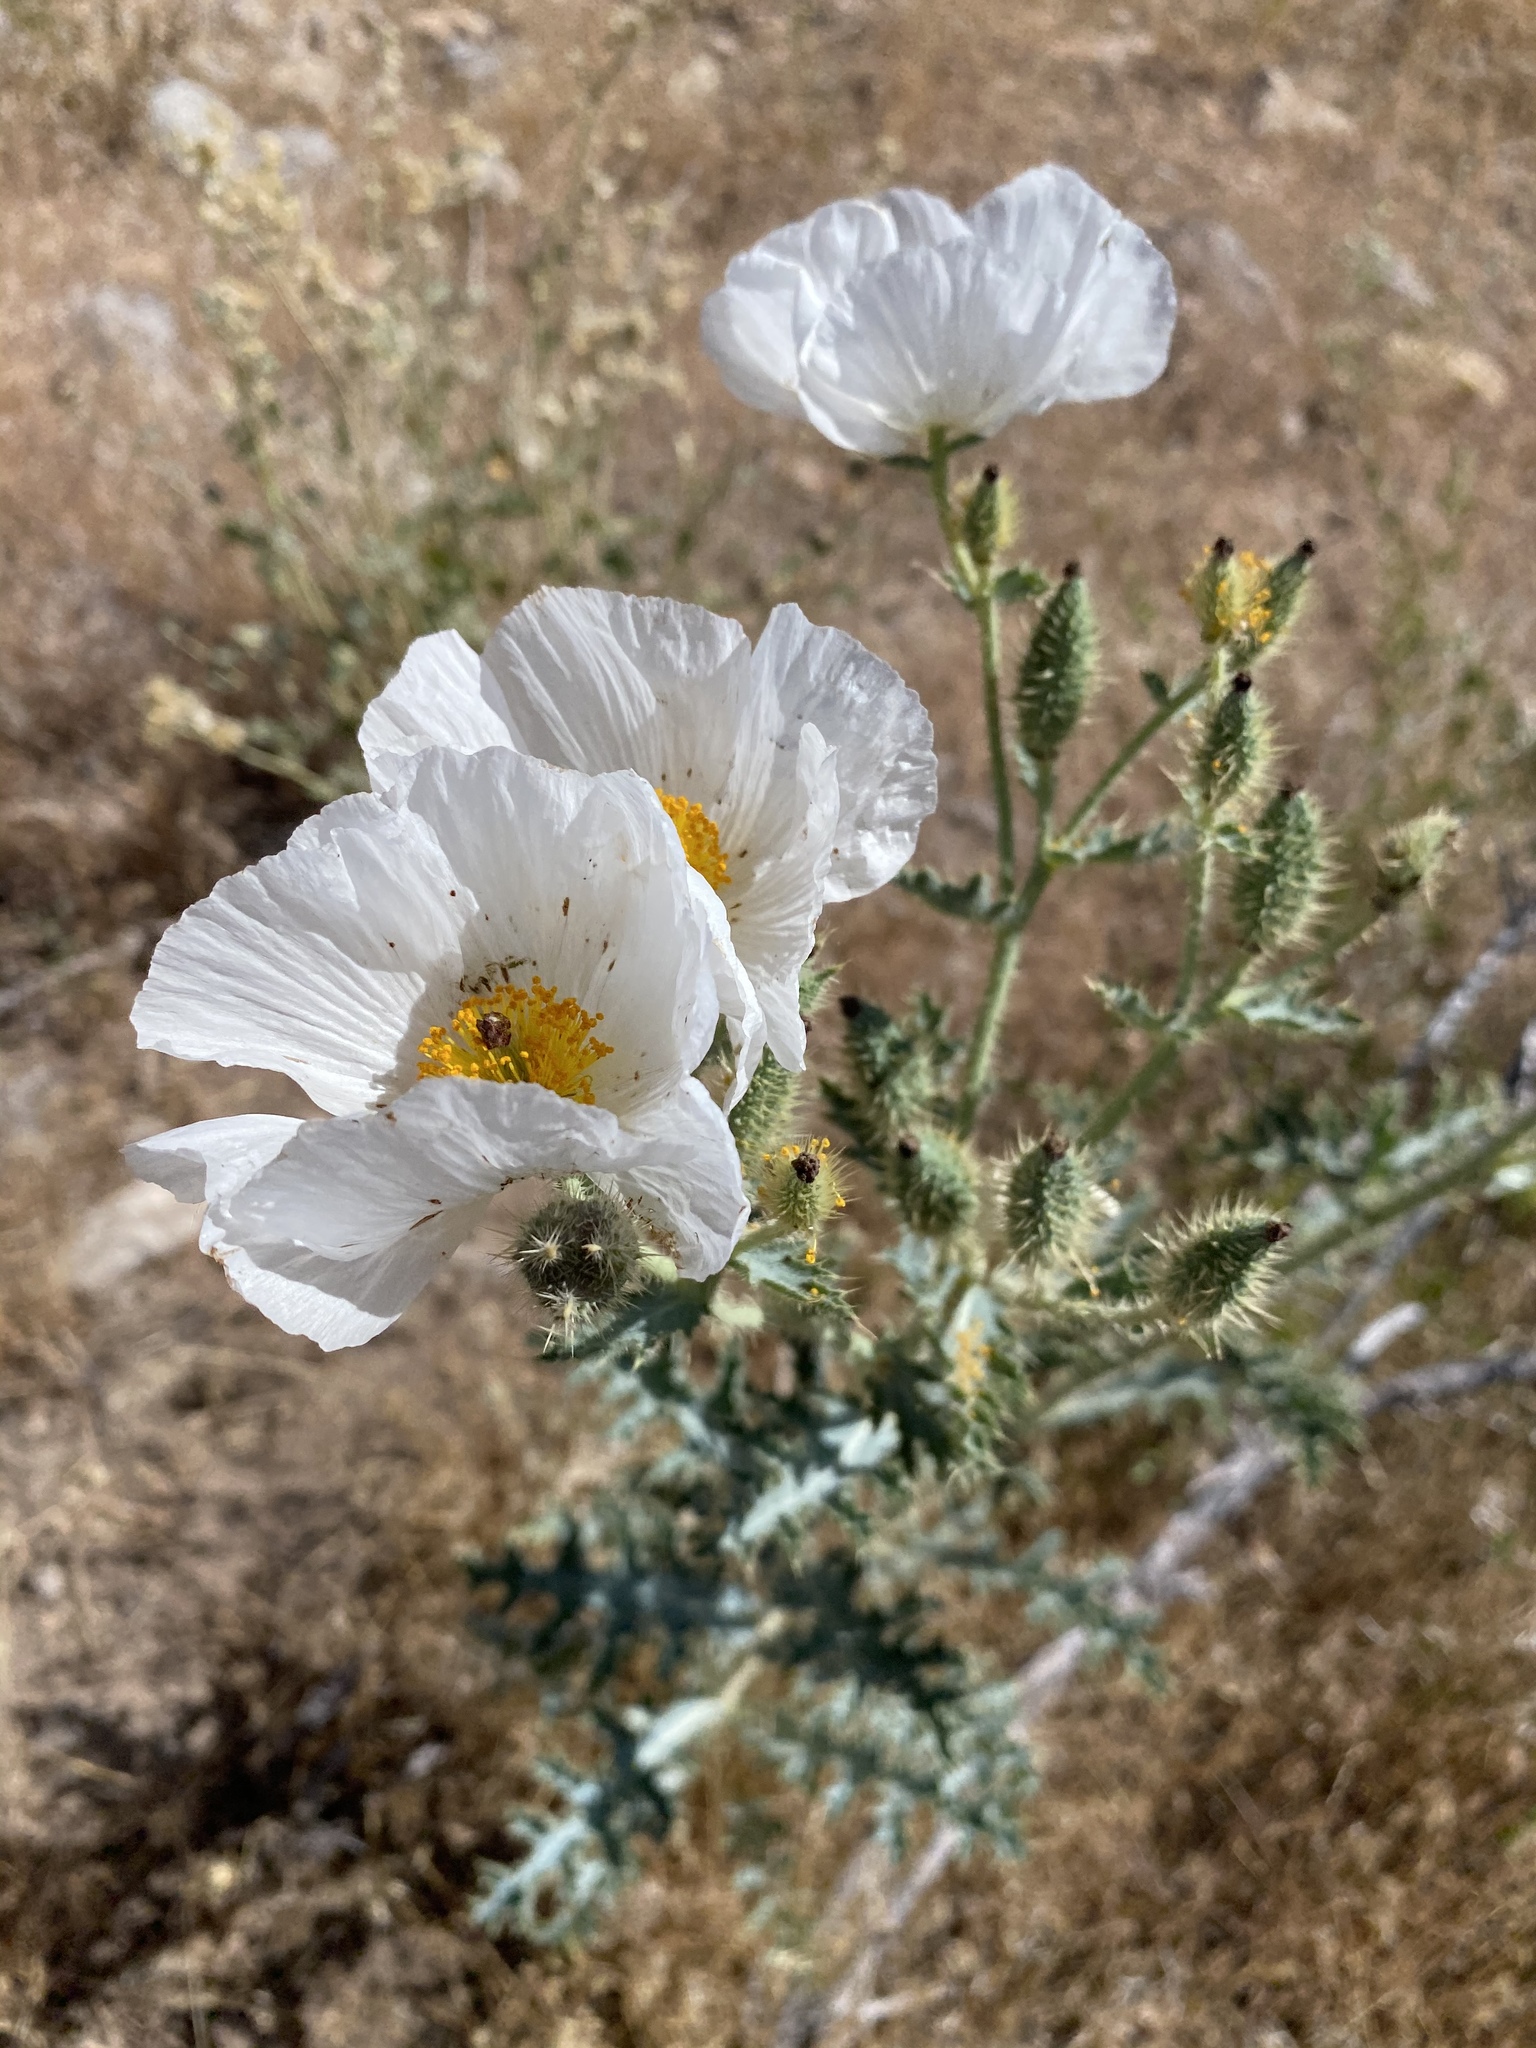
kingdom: Plantae
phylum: Tracheophyta
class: Magnoliopsida
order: Ranunculales
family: Papaveraceae
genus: Argemone
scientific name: Argemone munita
